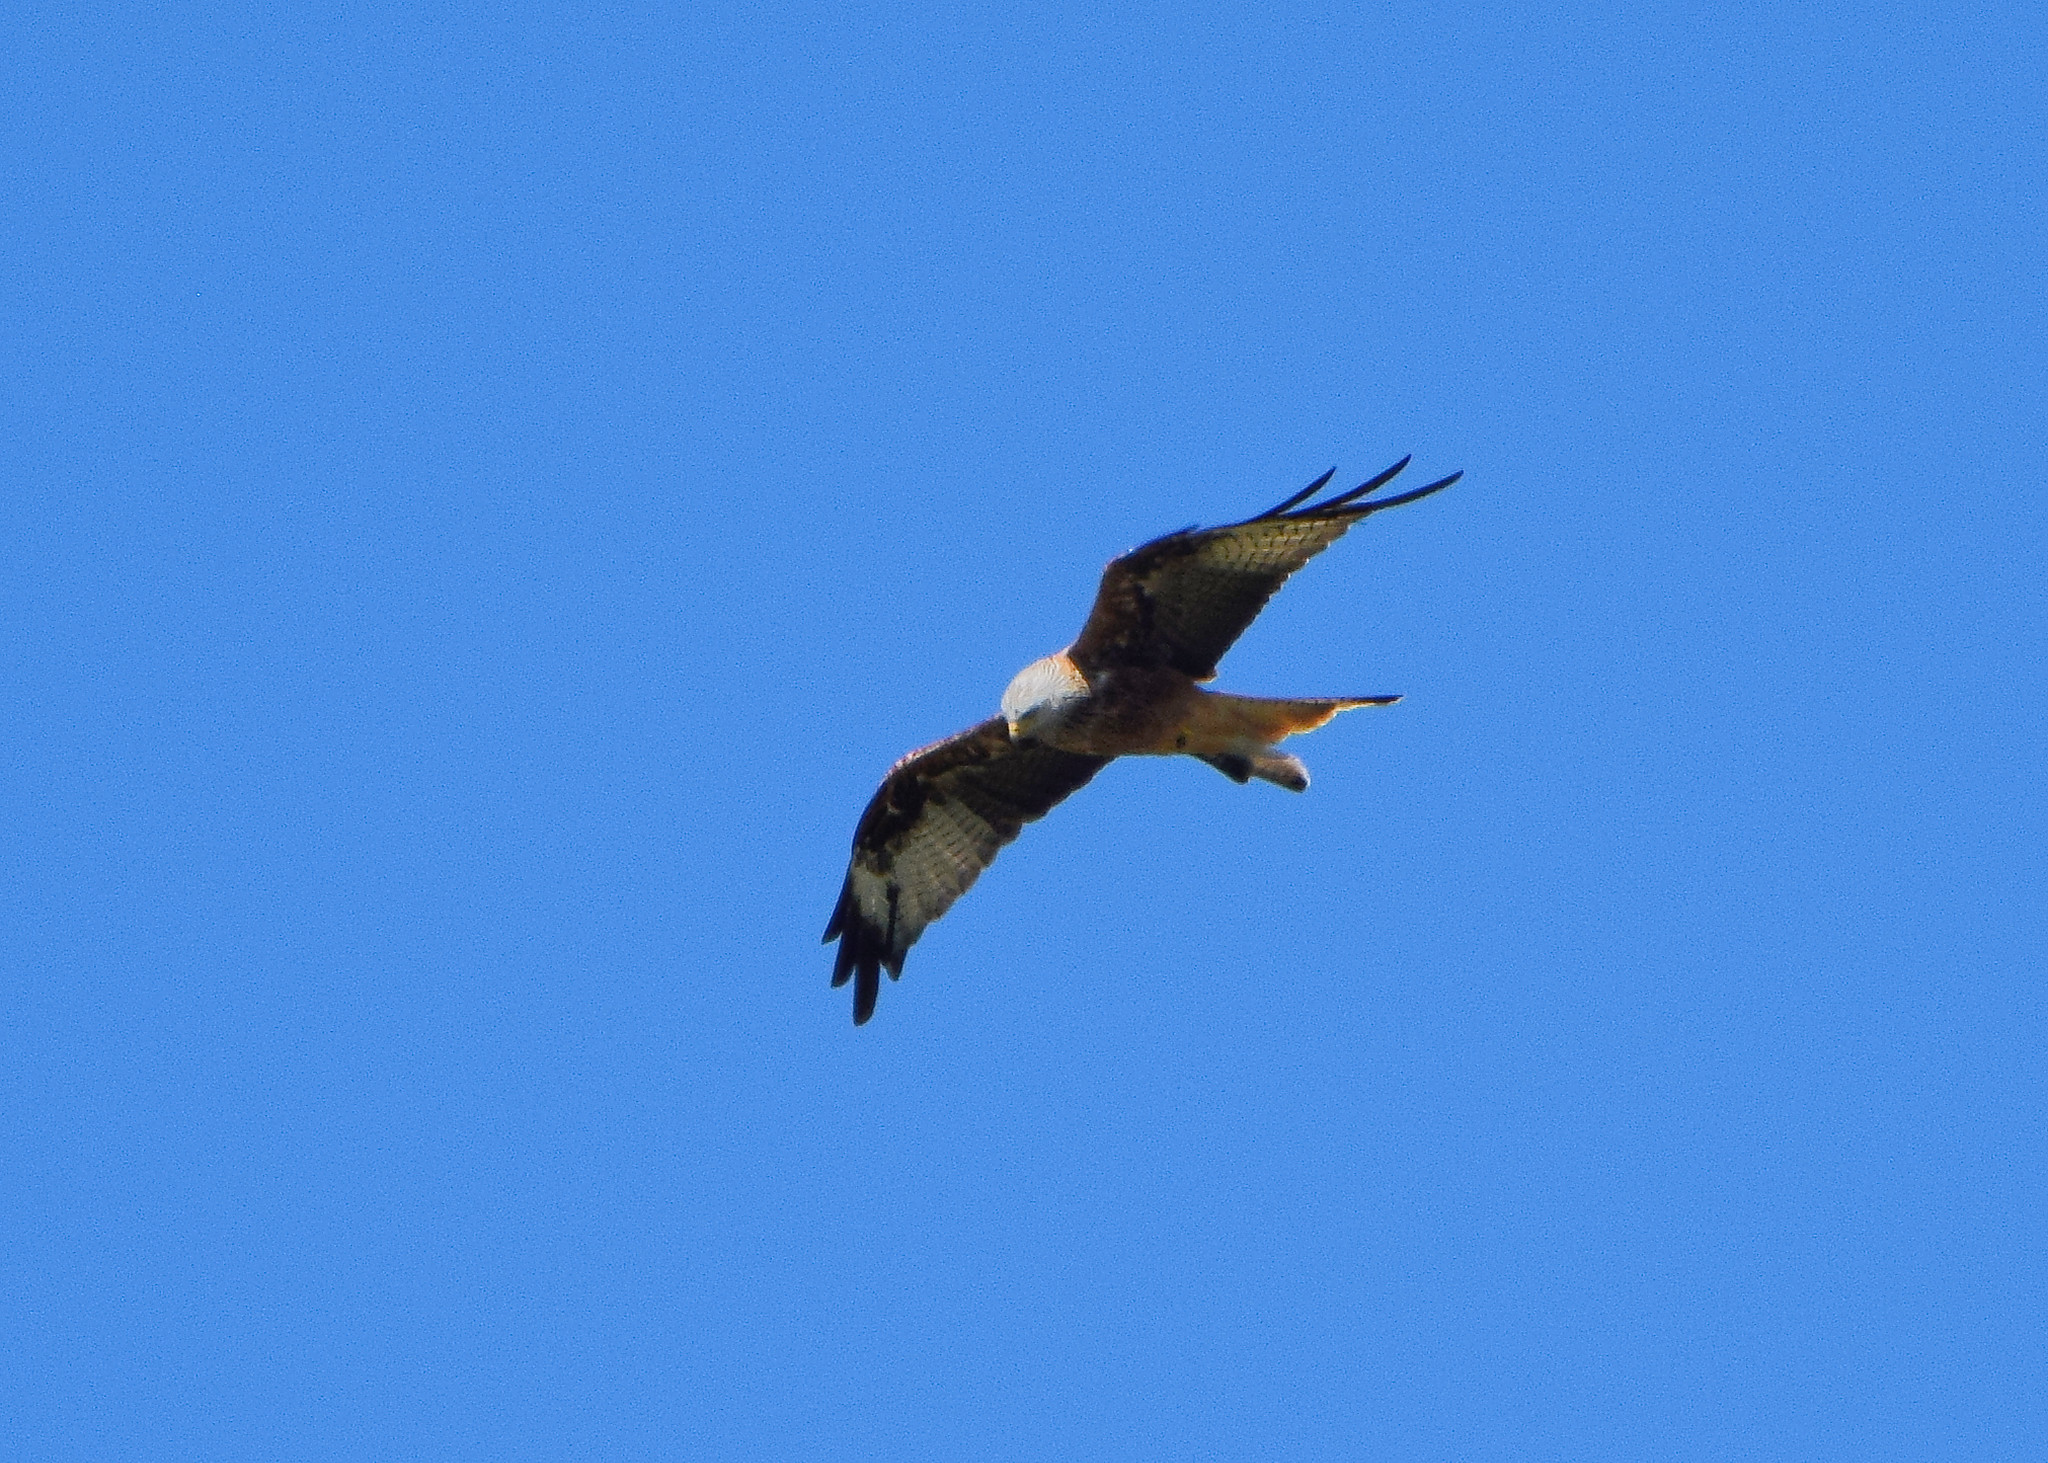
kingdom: Animalia
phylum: Chordata
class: Aves
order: Accipitriformes
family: Accipitridae
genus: Milvus
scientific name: Milvus milvus
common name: Red kite
